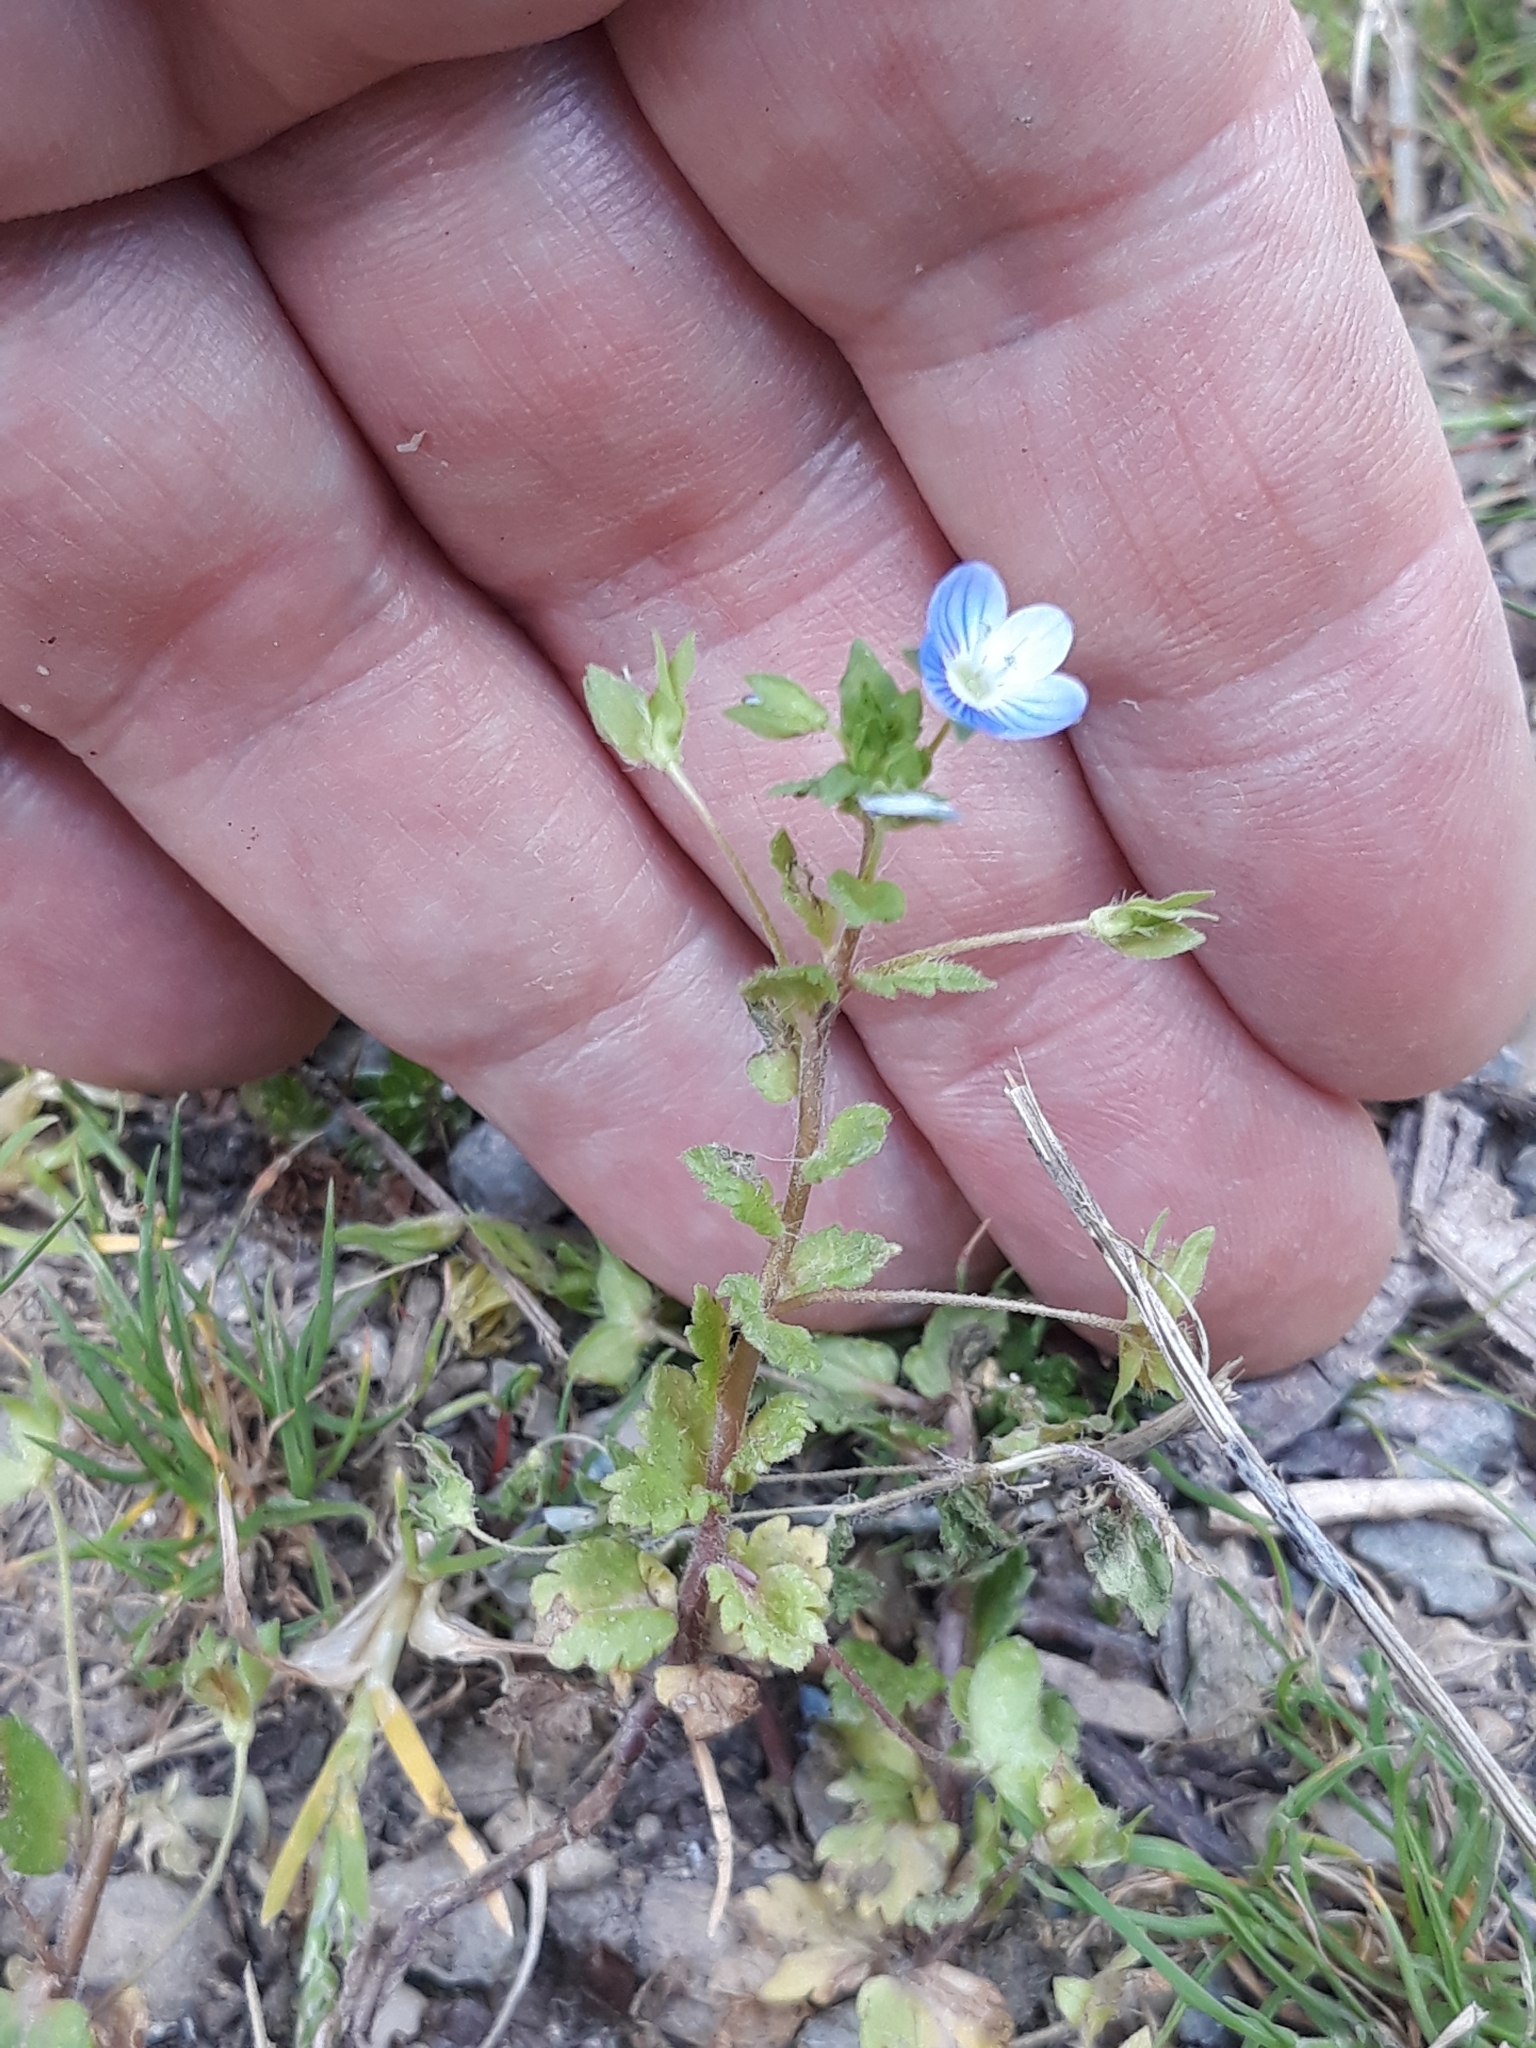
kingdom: Plantae
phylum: Tracheophyta
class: Magnoliopsida
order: Lamiales
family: Plantaginaceae
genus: Veronica
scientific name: Veronica persica
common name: Common field-speedwell
